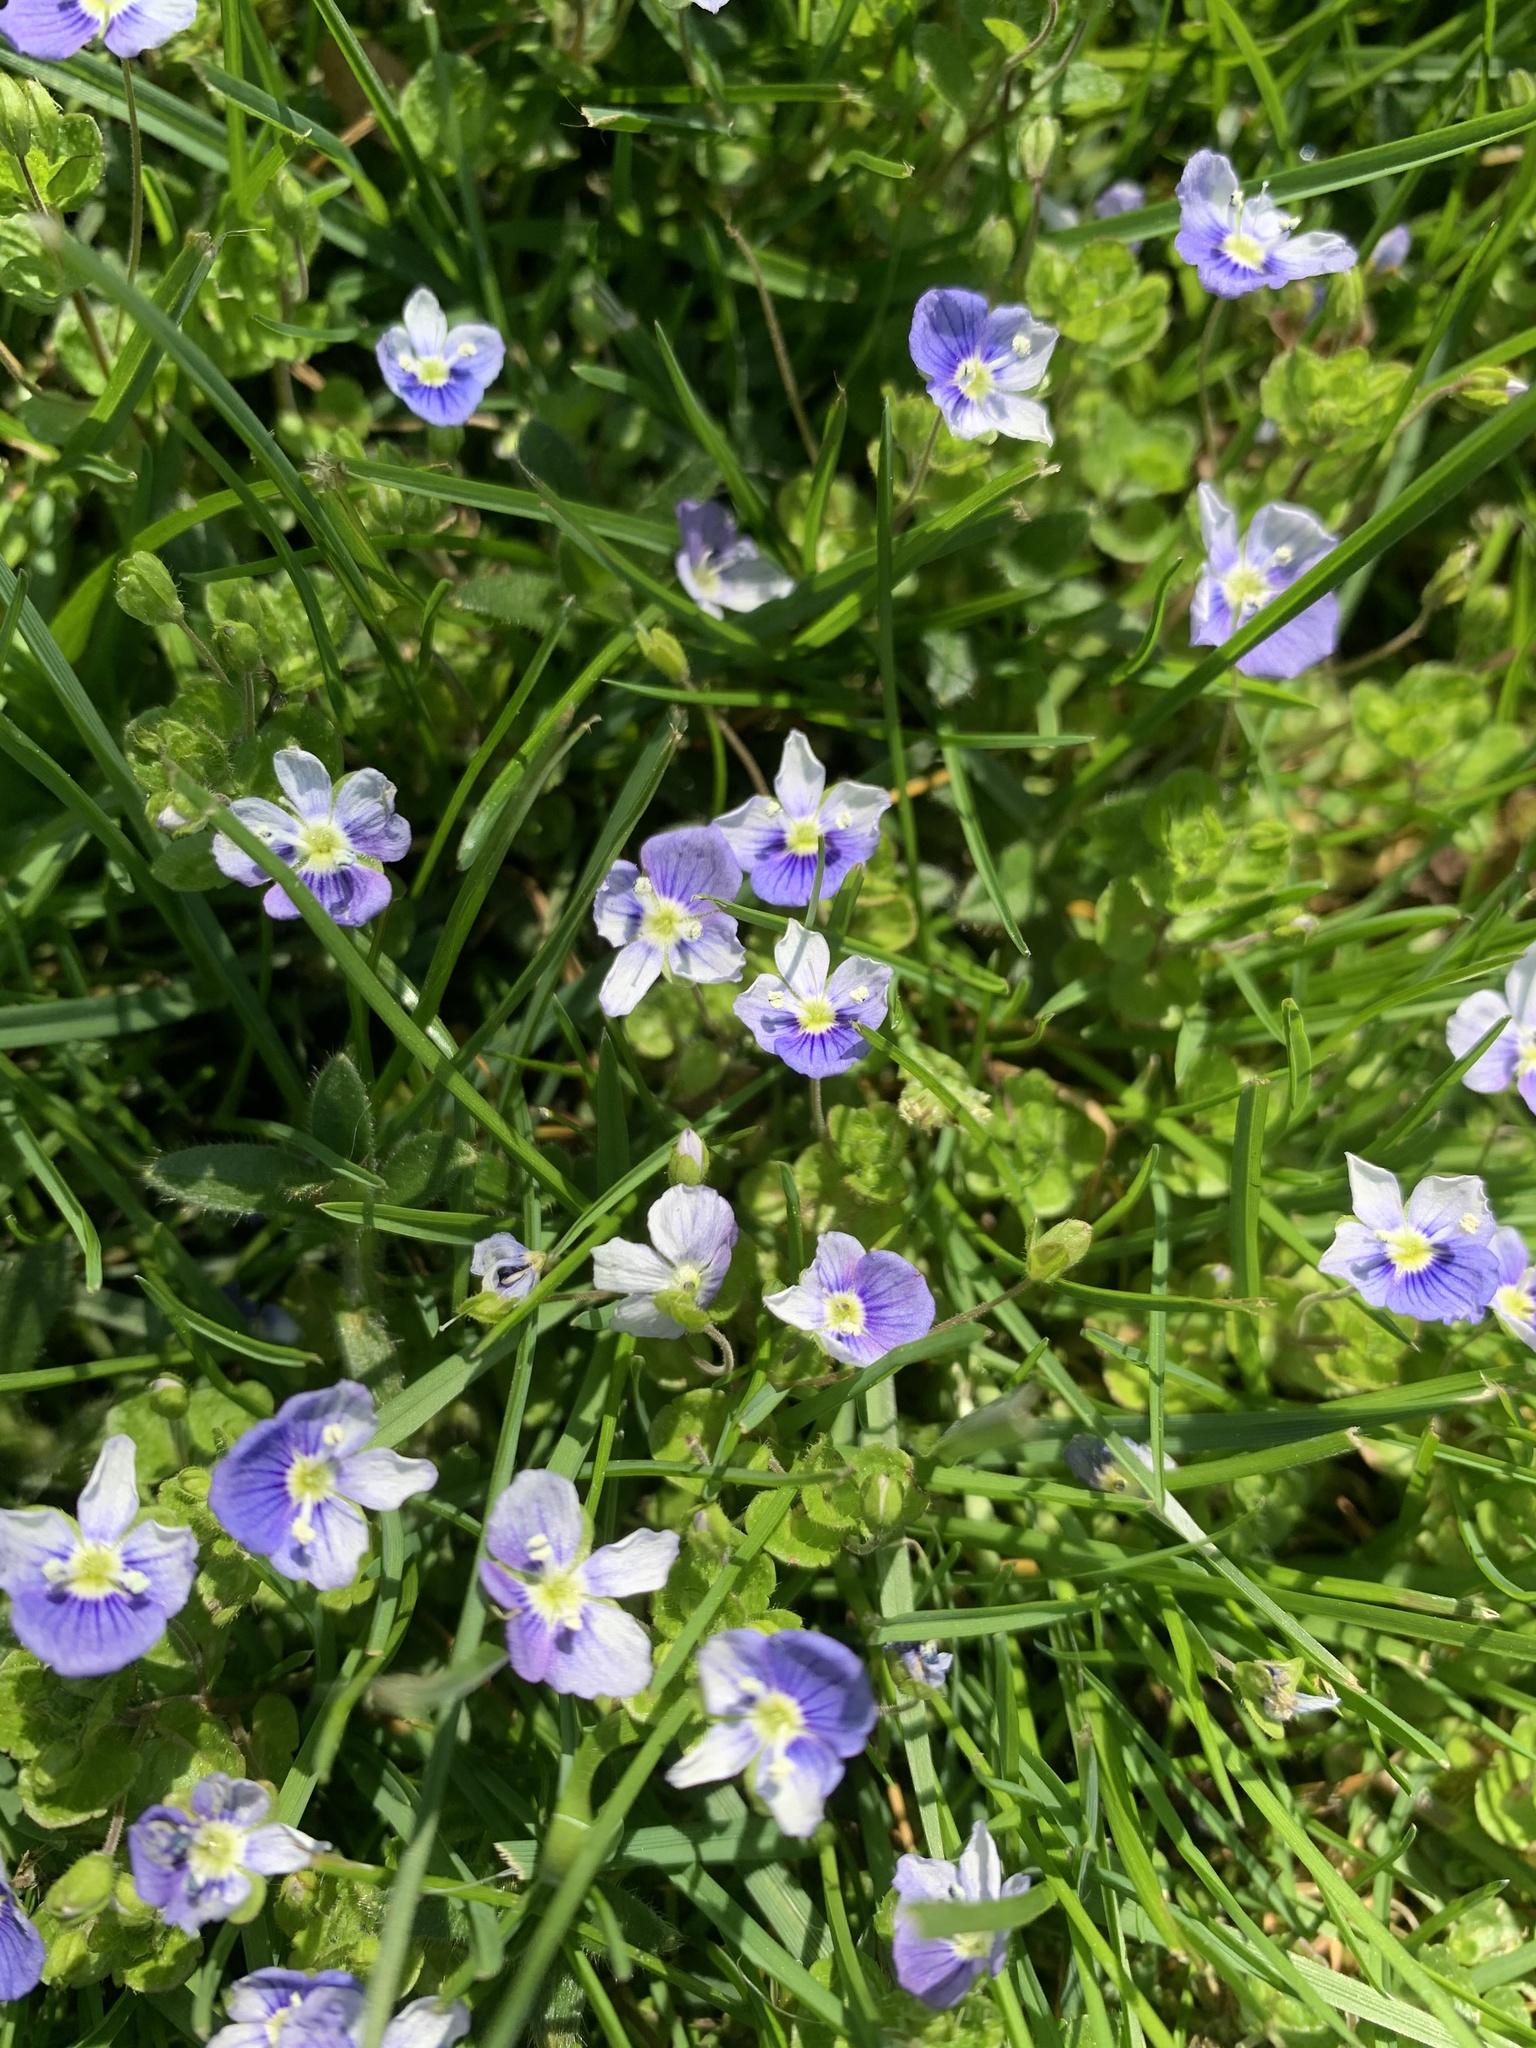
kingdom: Plantae
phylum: Tracheophyta
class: Magnoliopsida
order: Lamiales
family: Plantaginaceae
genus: Veronica
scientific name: Veronica filiformis
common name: Slender speedwell
